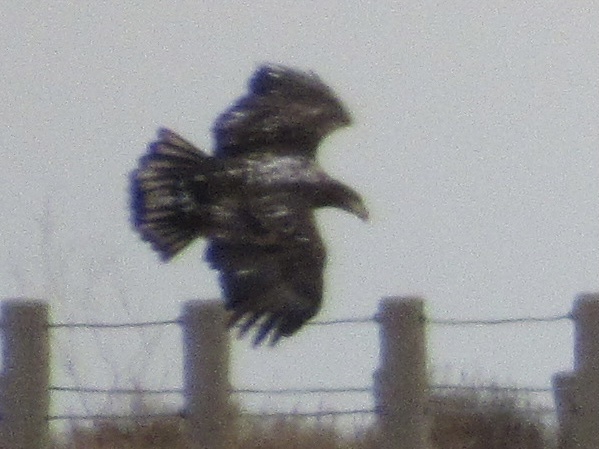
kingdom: Animalia
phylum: Chordata
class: Aves
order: Accipitriformes
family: Accipitridae
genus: Haliaeetus
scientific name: Haliaeetus leucocephalus
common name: Bald eagle
